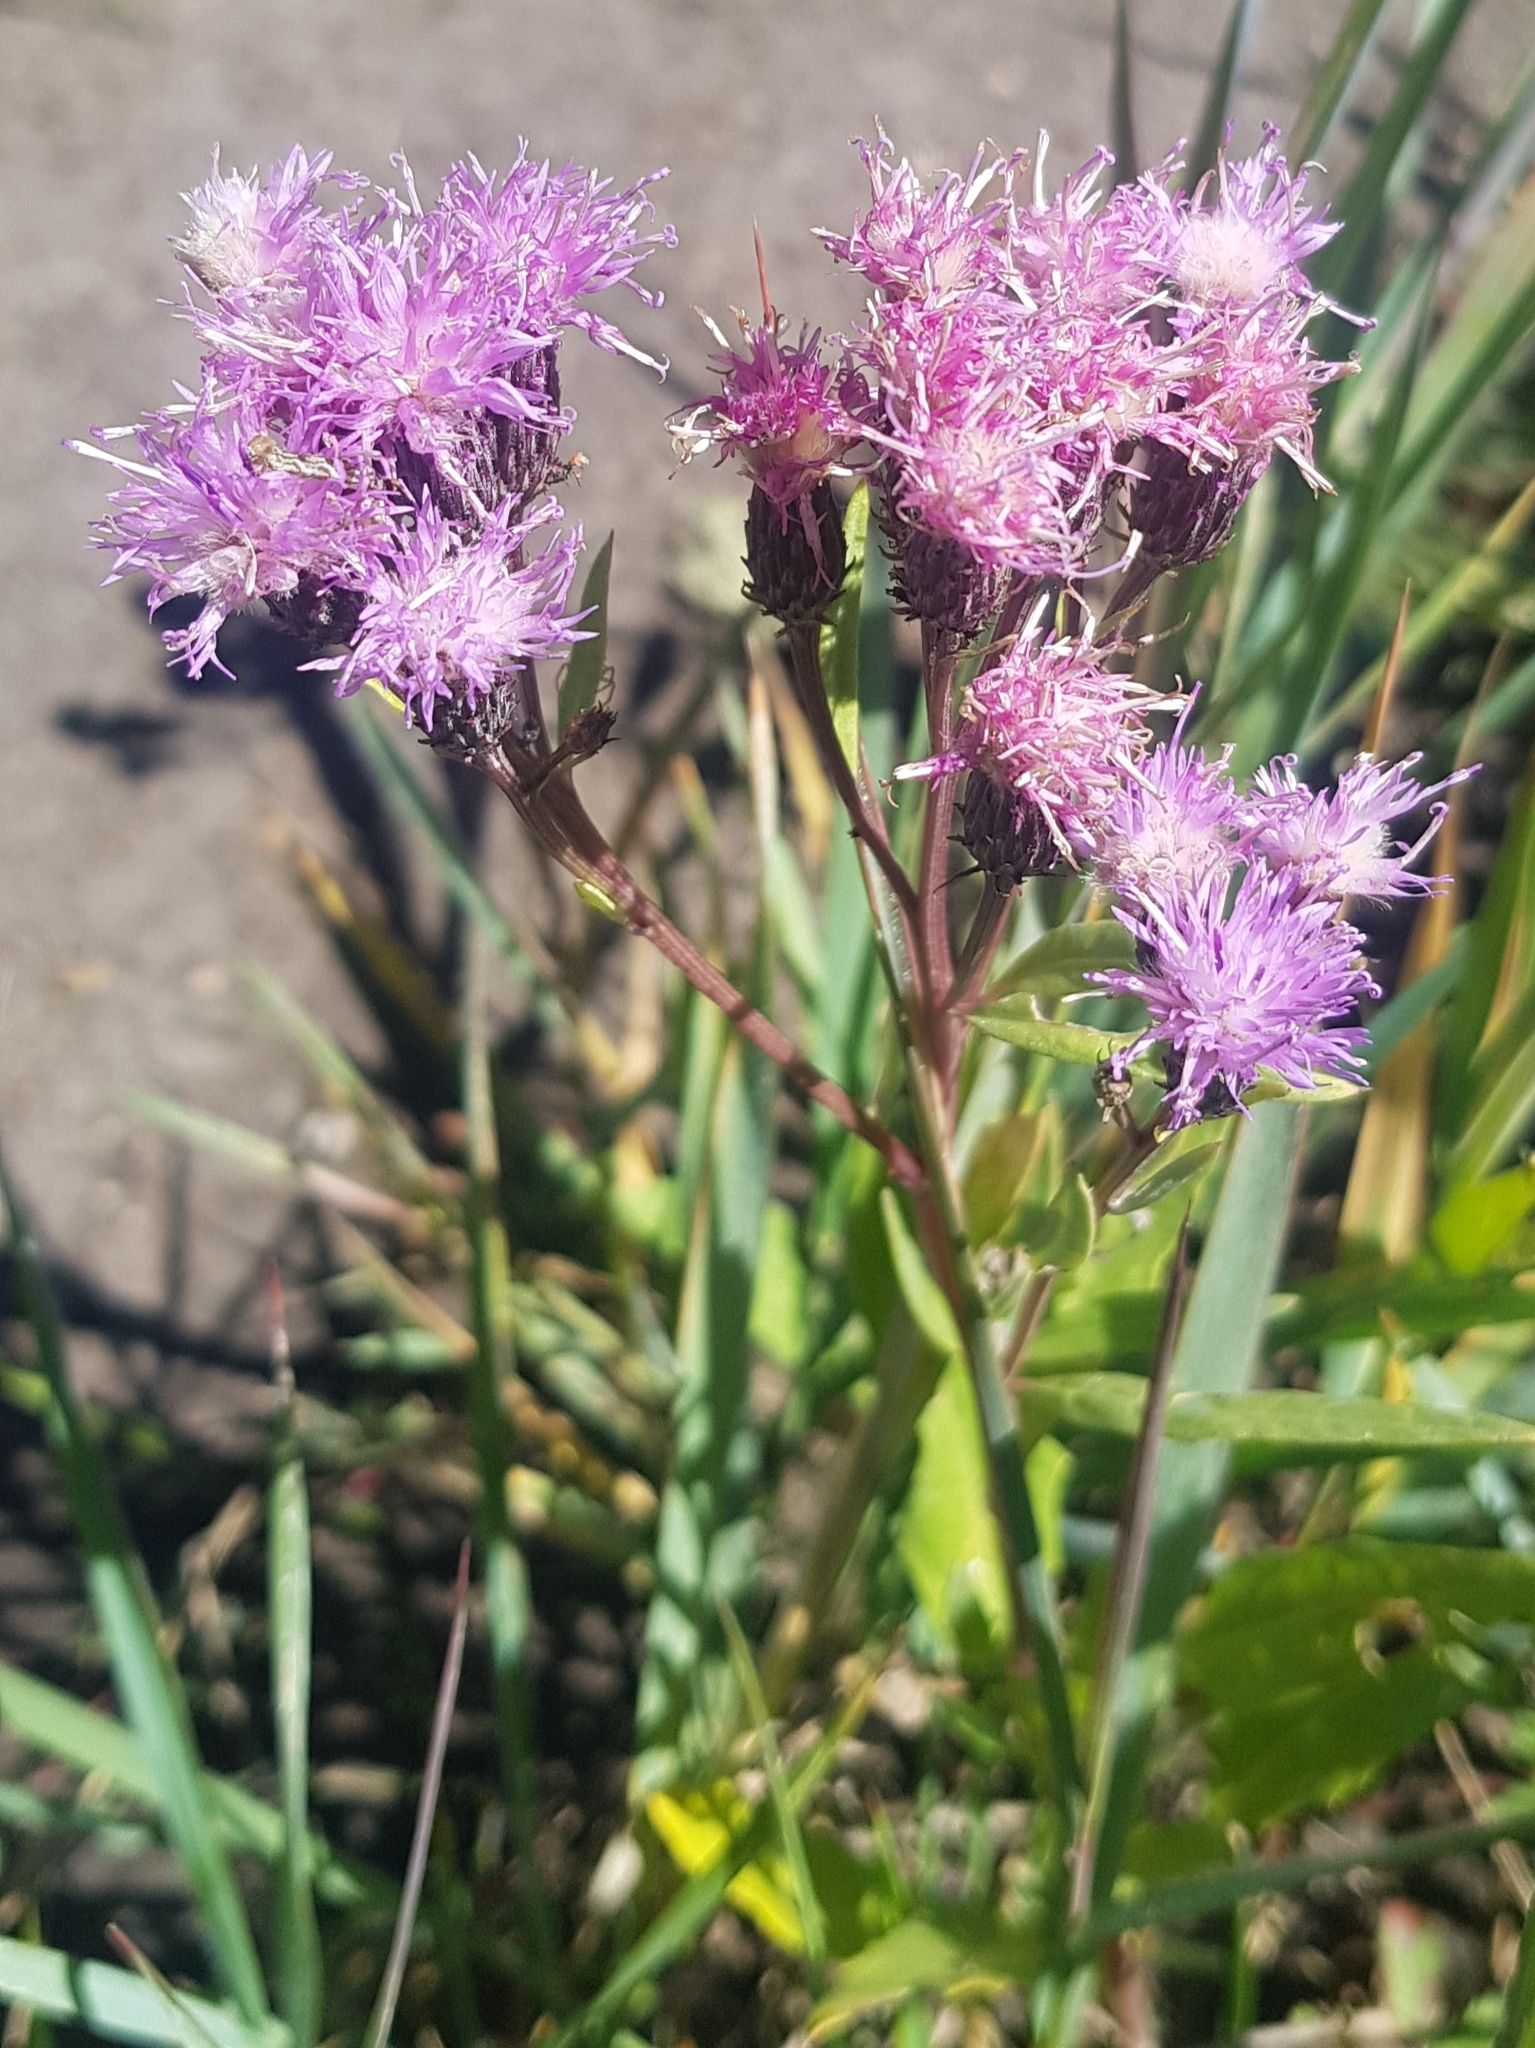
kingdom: Plantae
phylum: Tracheophyta
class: Magnoliopsida
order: Asterales
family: Asteraceae
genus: Saussurea
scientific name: Saussurea salicifolia
